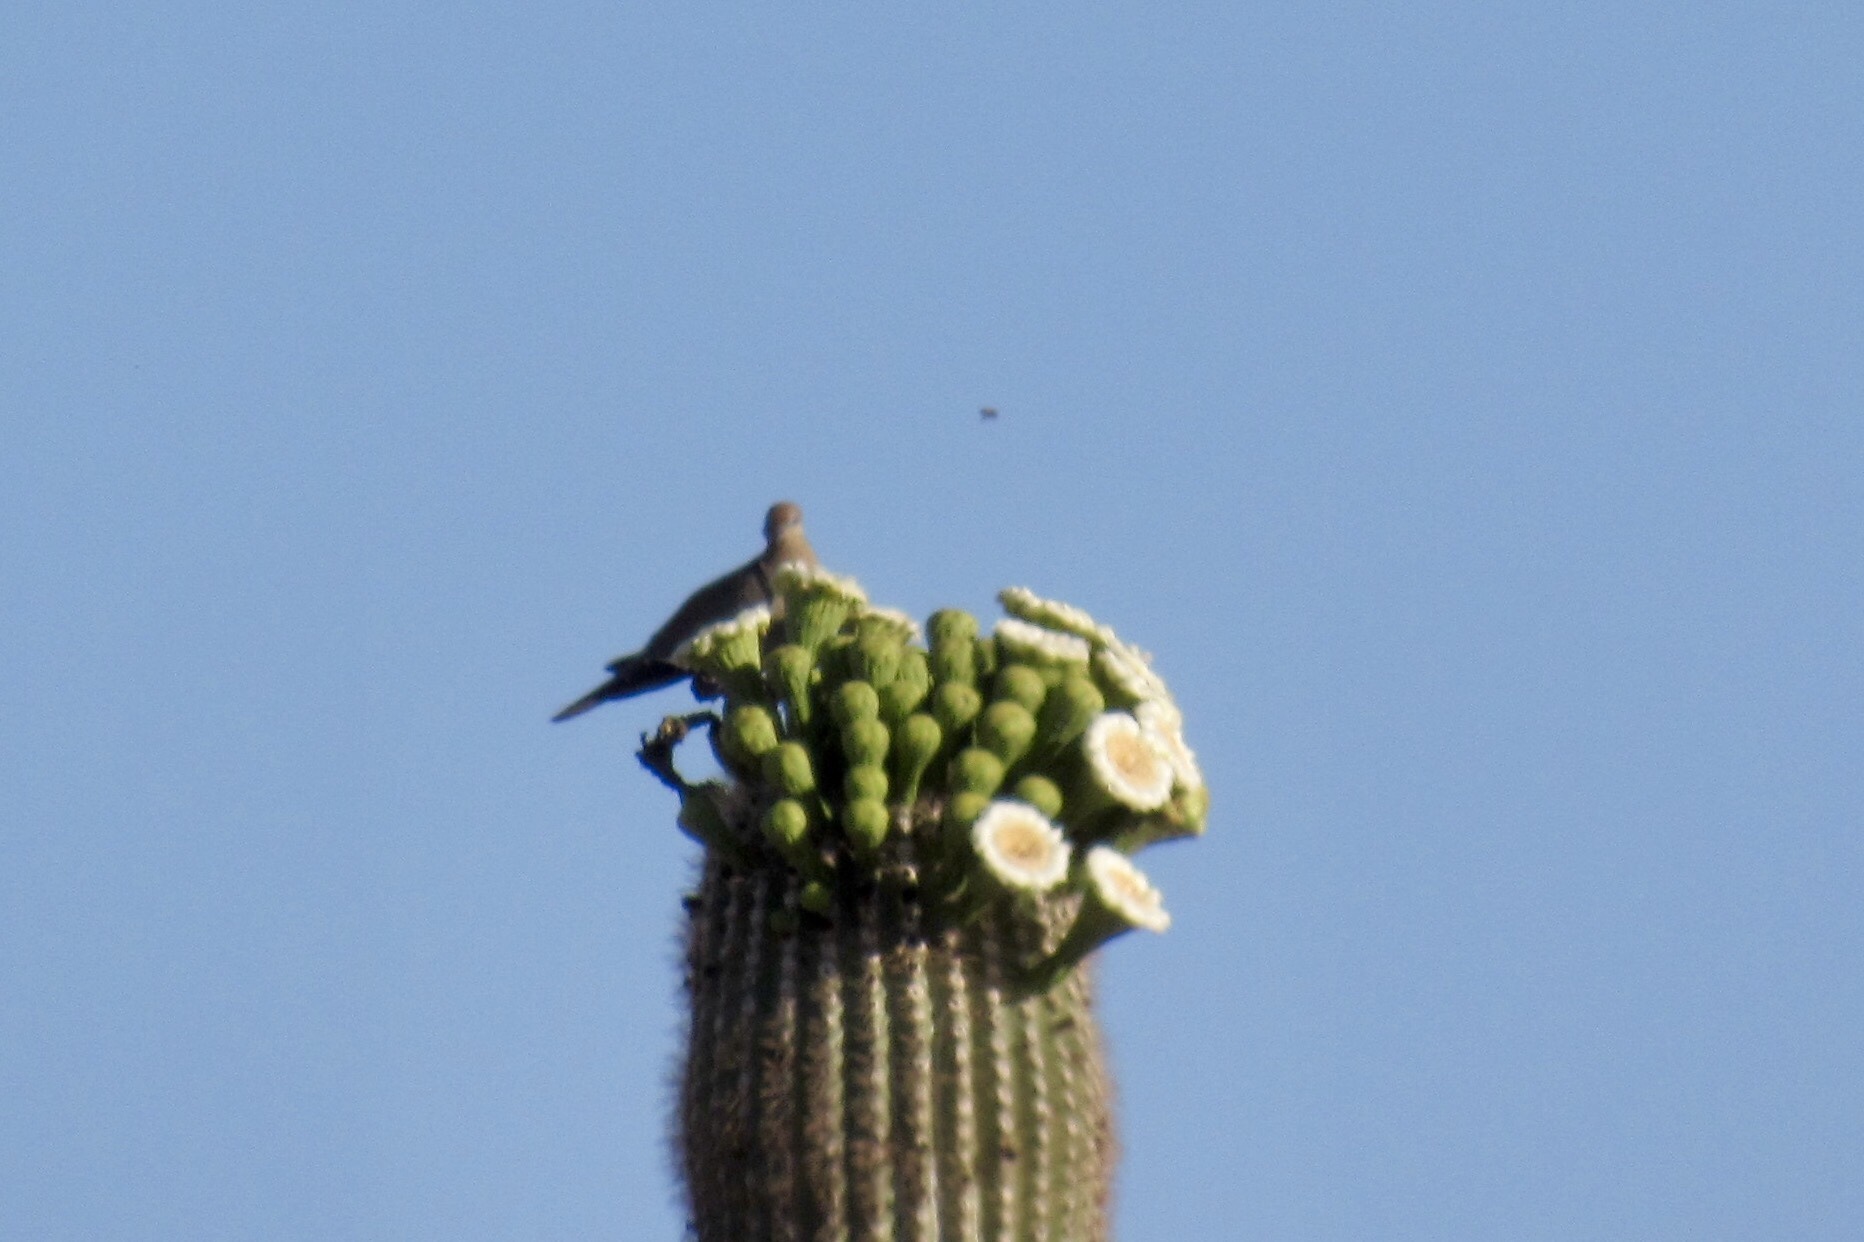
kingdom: Animalia
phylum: Chordata
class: Aves
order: Columbiformes
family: Columbidae
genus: Zenaida
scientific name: Zenaida macroura
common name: Mourning dove
